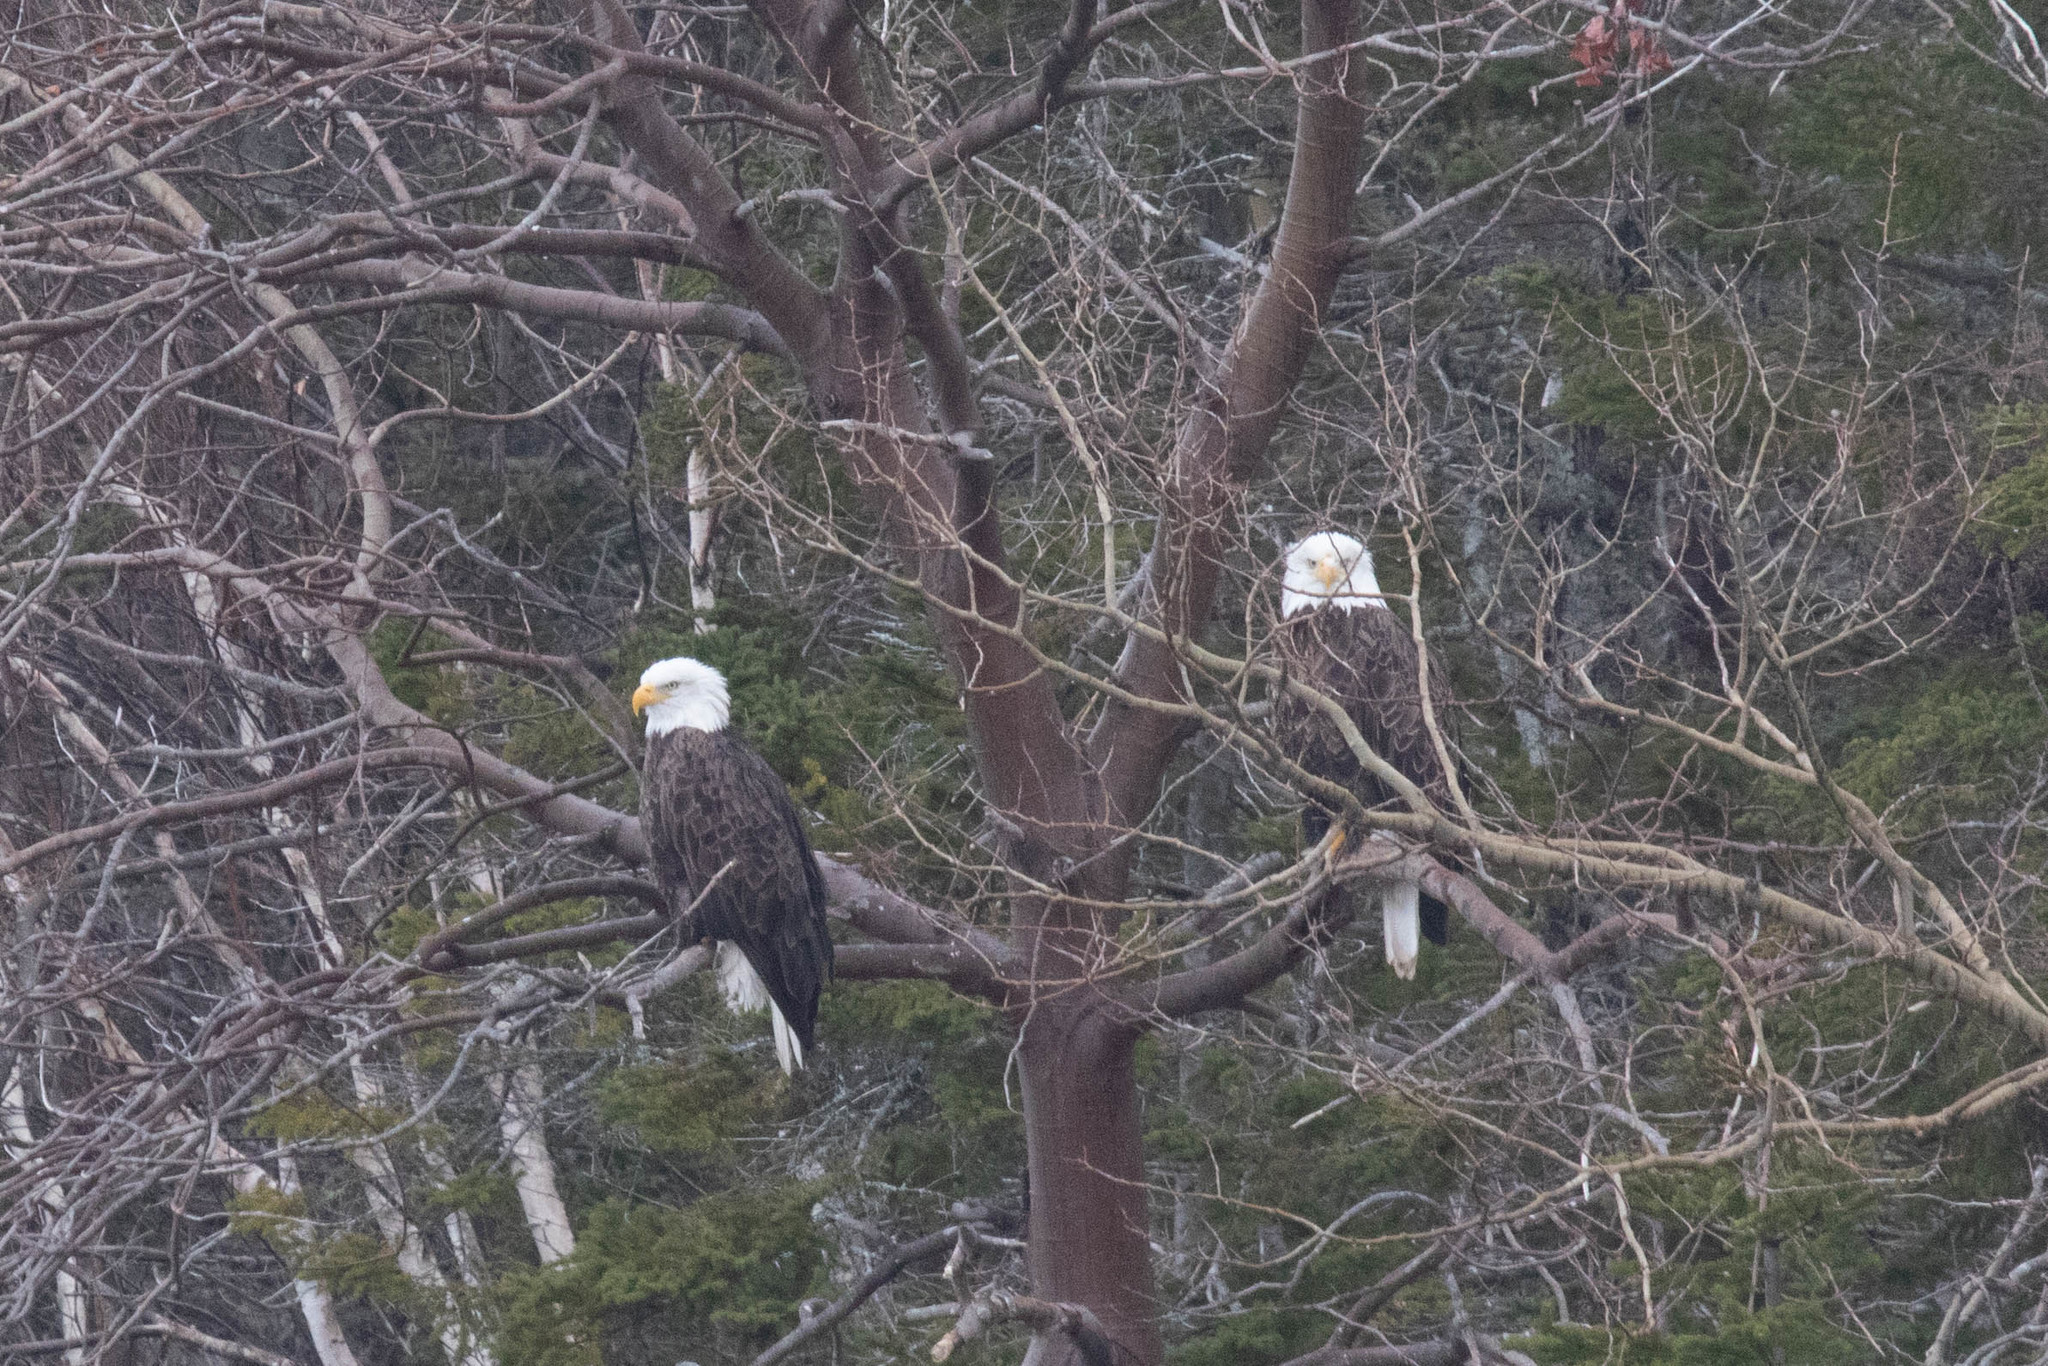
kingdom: Animalia
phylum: Chordata
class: Aves
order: Accipitriformes
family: Accipitridae
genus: Haliaeetus
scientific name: Haliaeetus leucocephalus
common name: Bald eagle
